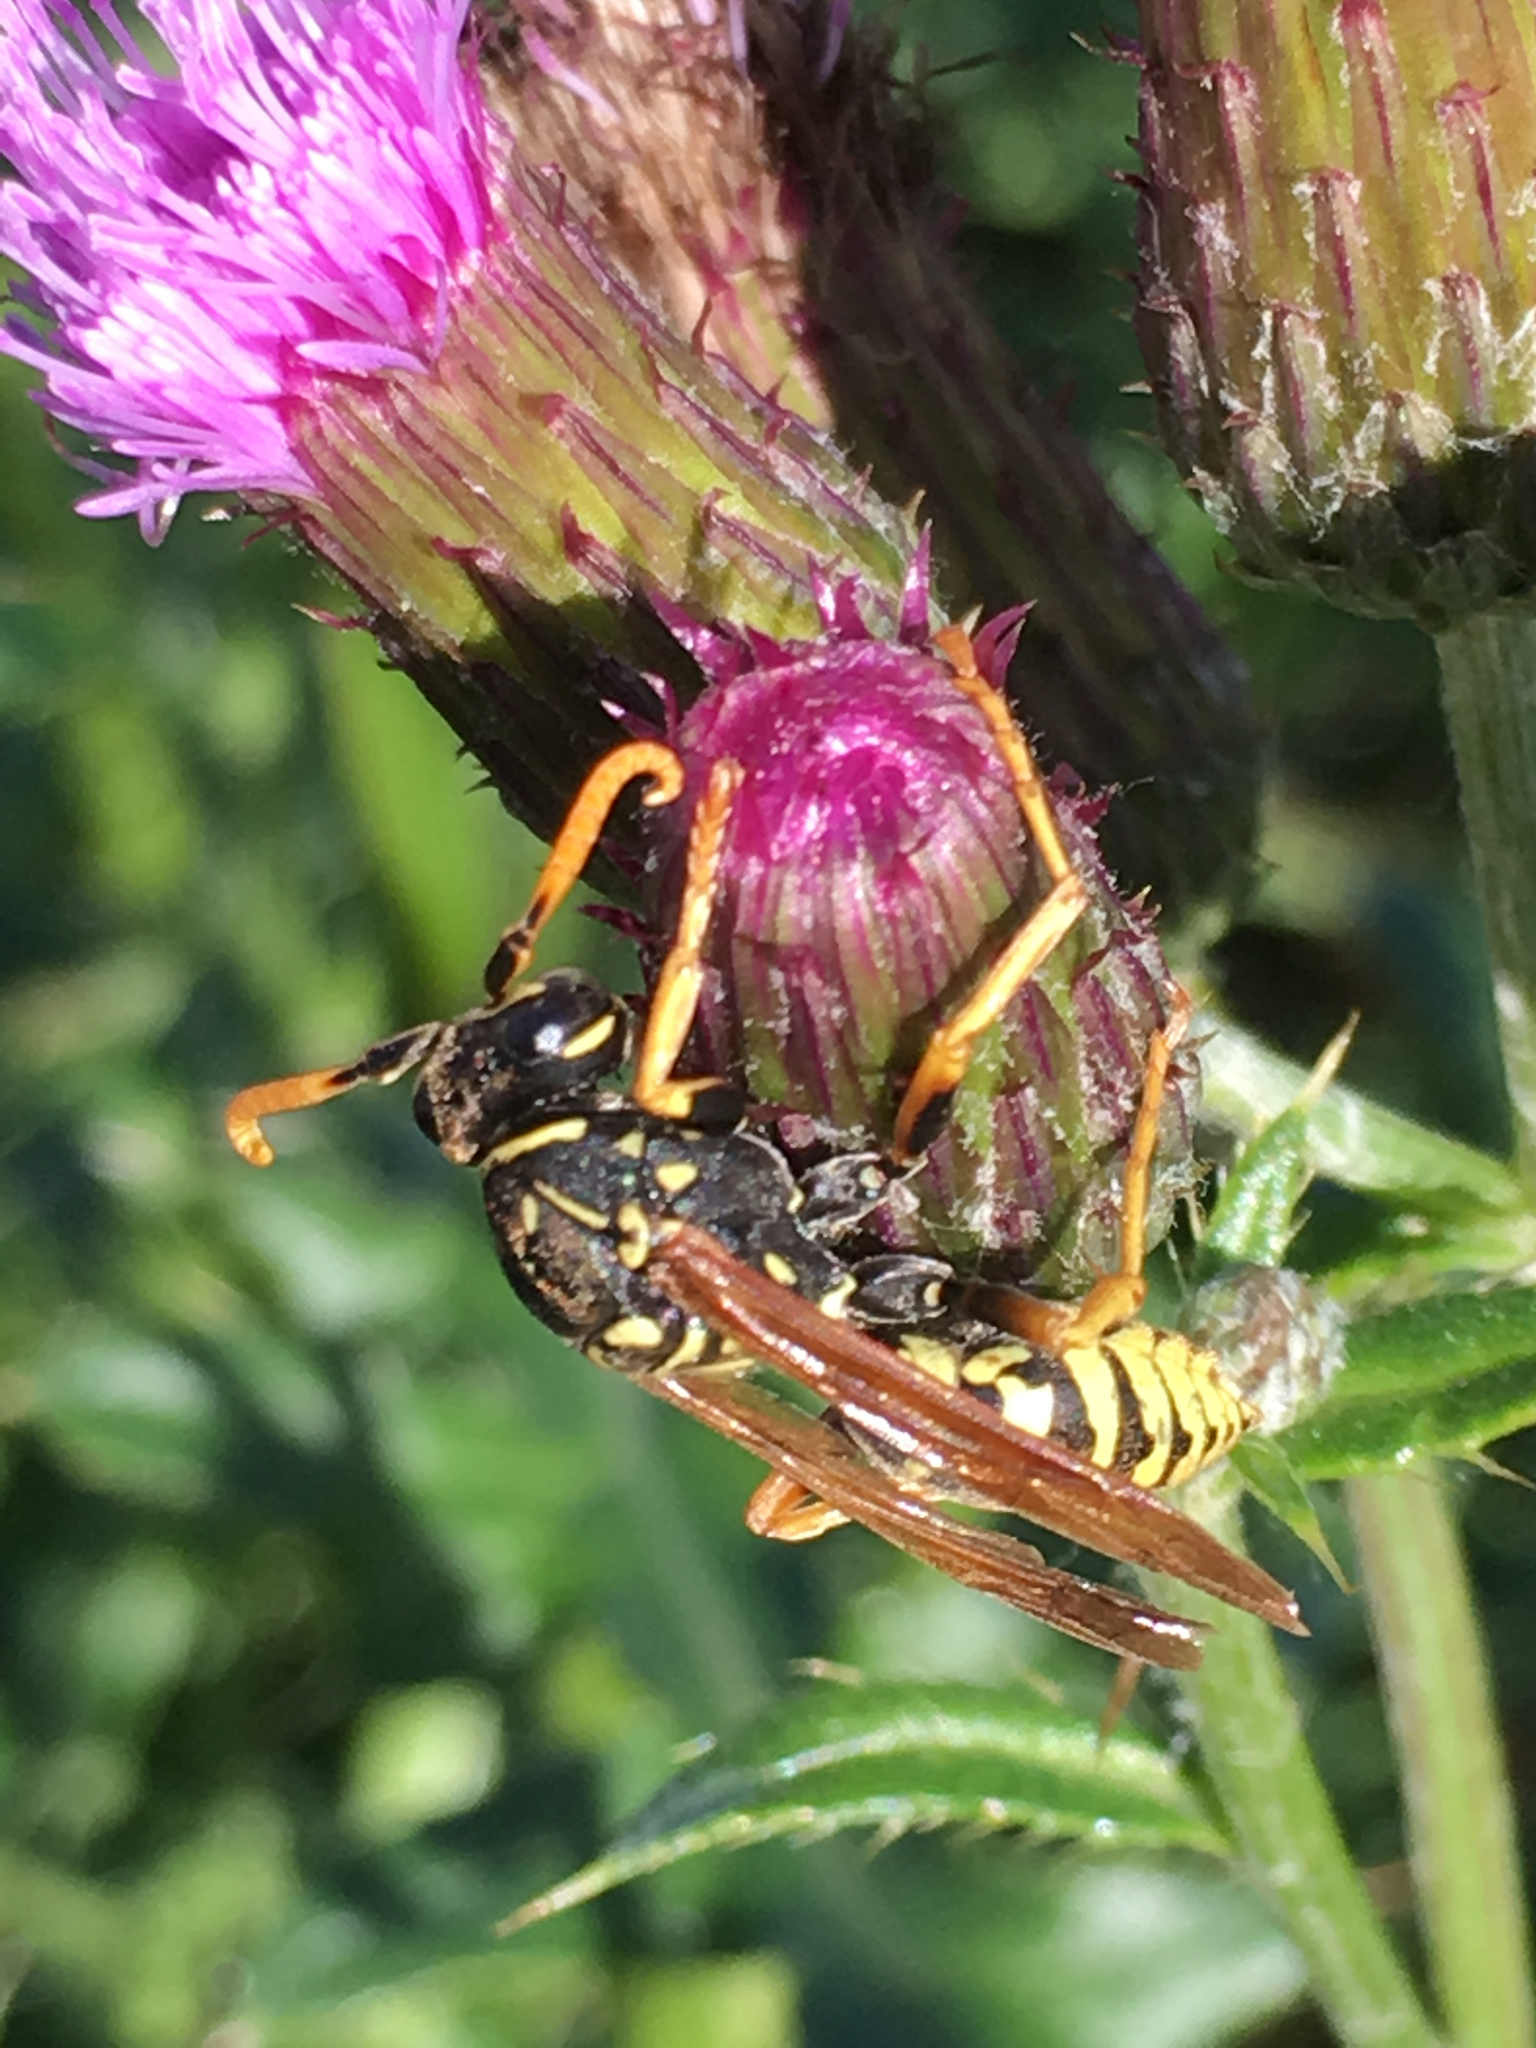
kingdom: Animalia
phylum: Arthropoda
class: Insecta
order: Hymenoptera
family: Eumenidae
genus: Polistes
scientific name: Polistes dominula
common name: Paper wasp
